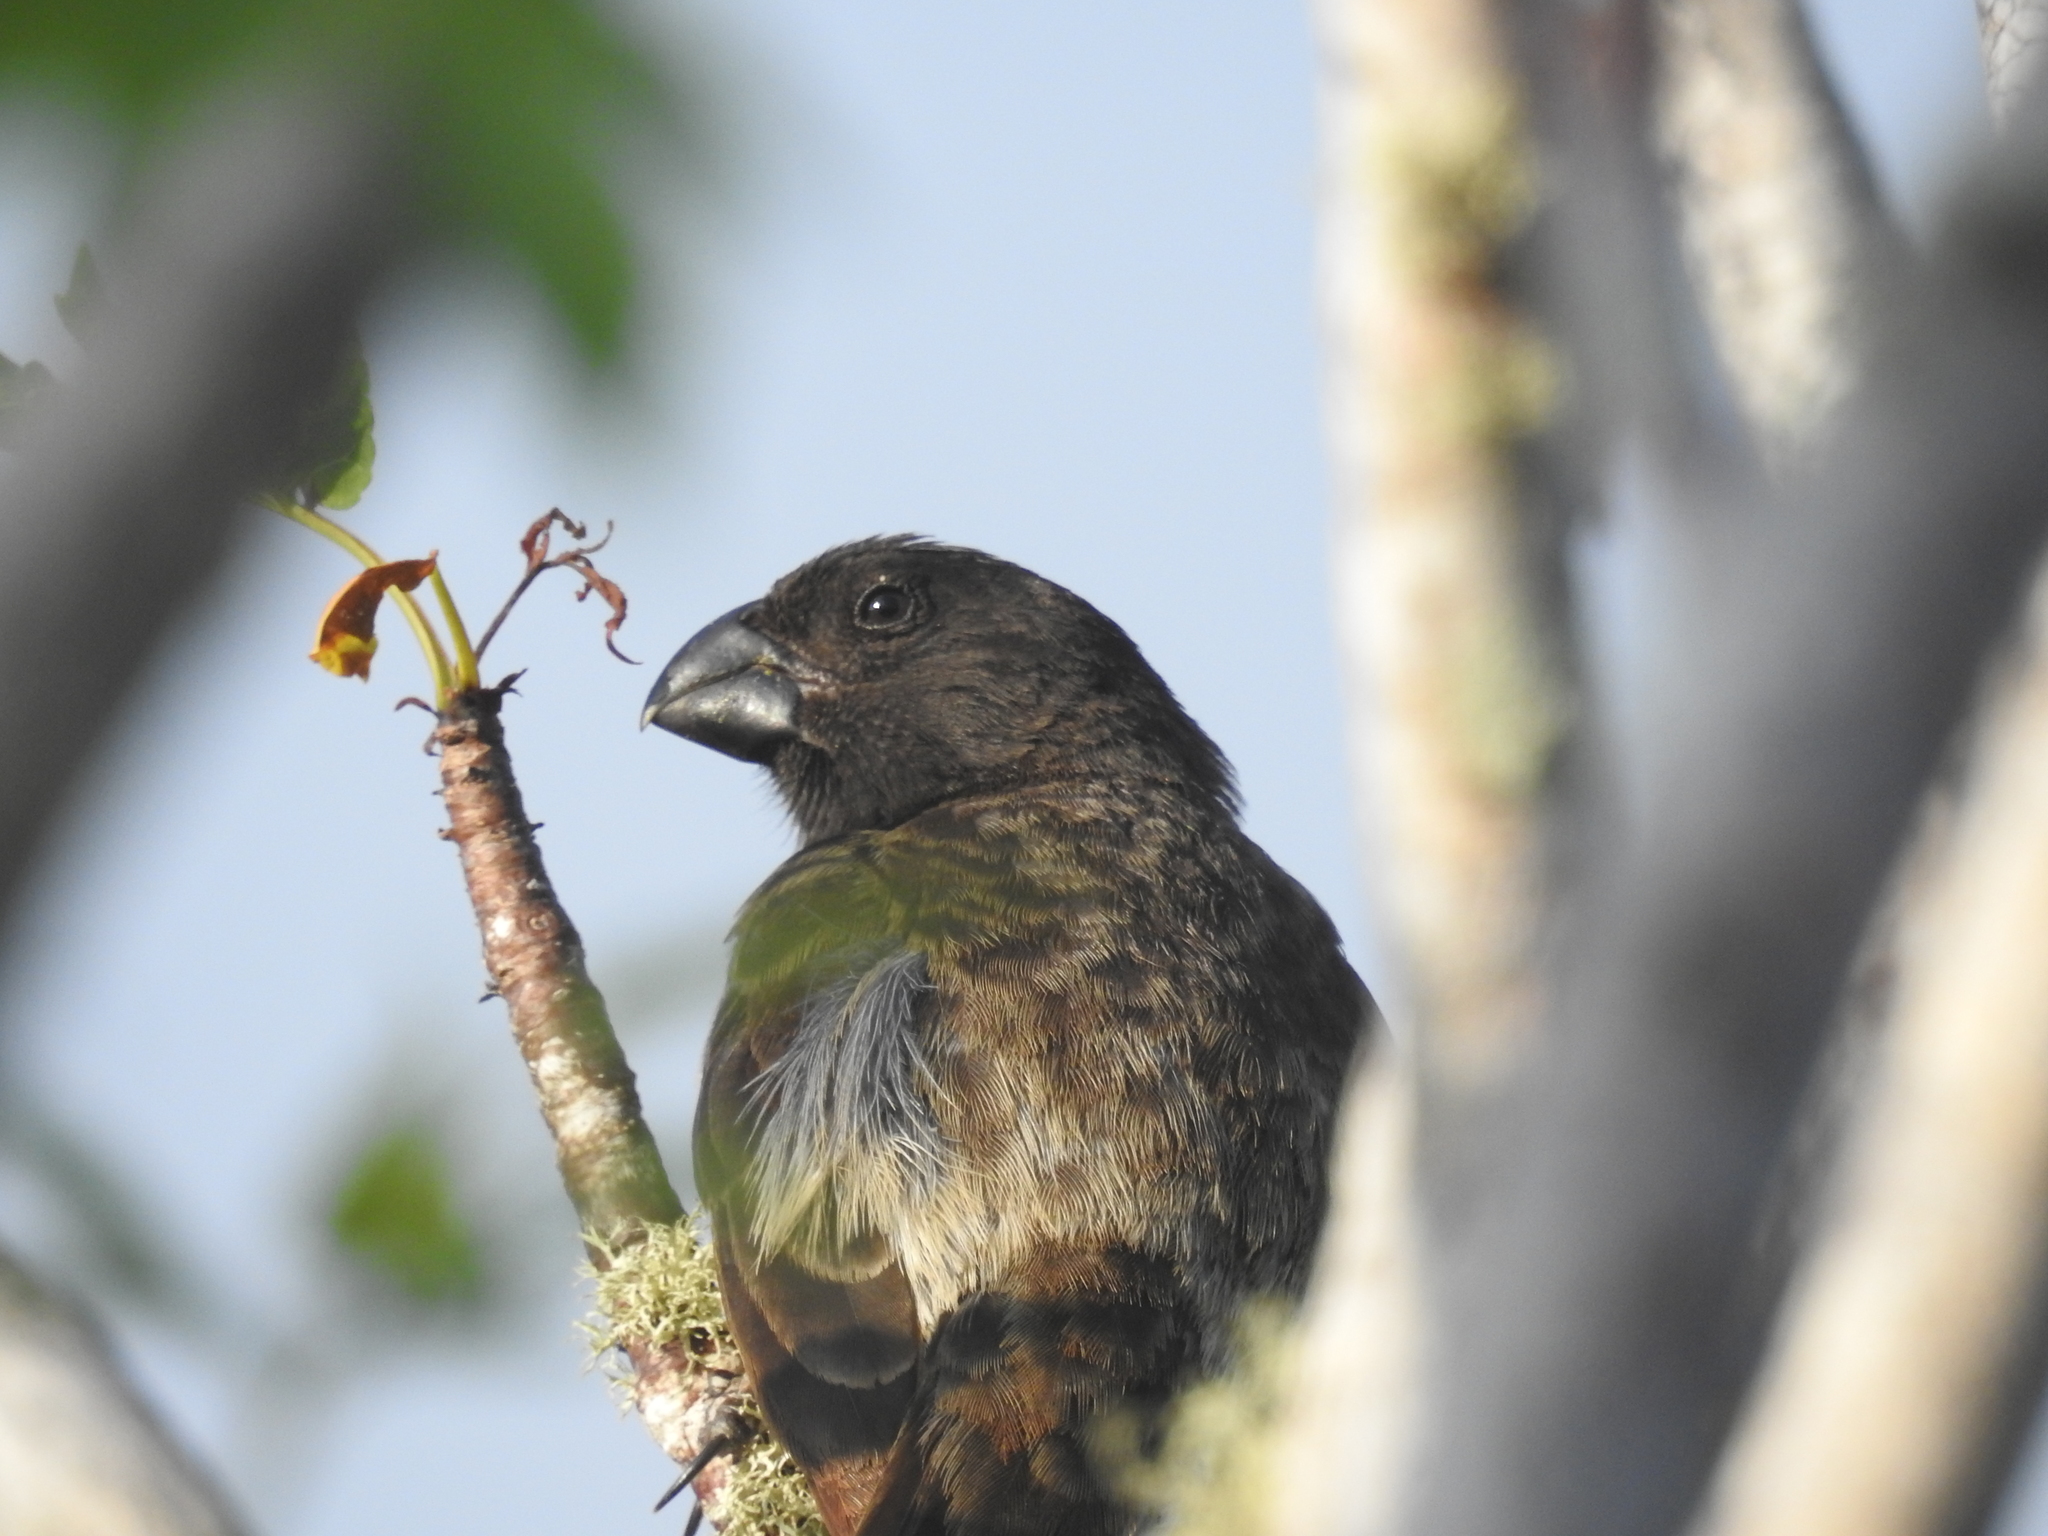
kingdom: Animalia
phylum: Chordata
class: Aves
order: Passeriformes
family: Thraupidae
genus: Platyspiza
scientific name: Platyspiza crassirostris
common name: Vegetarian finch
